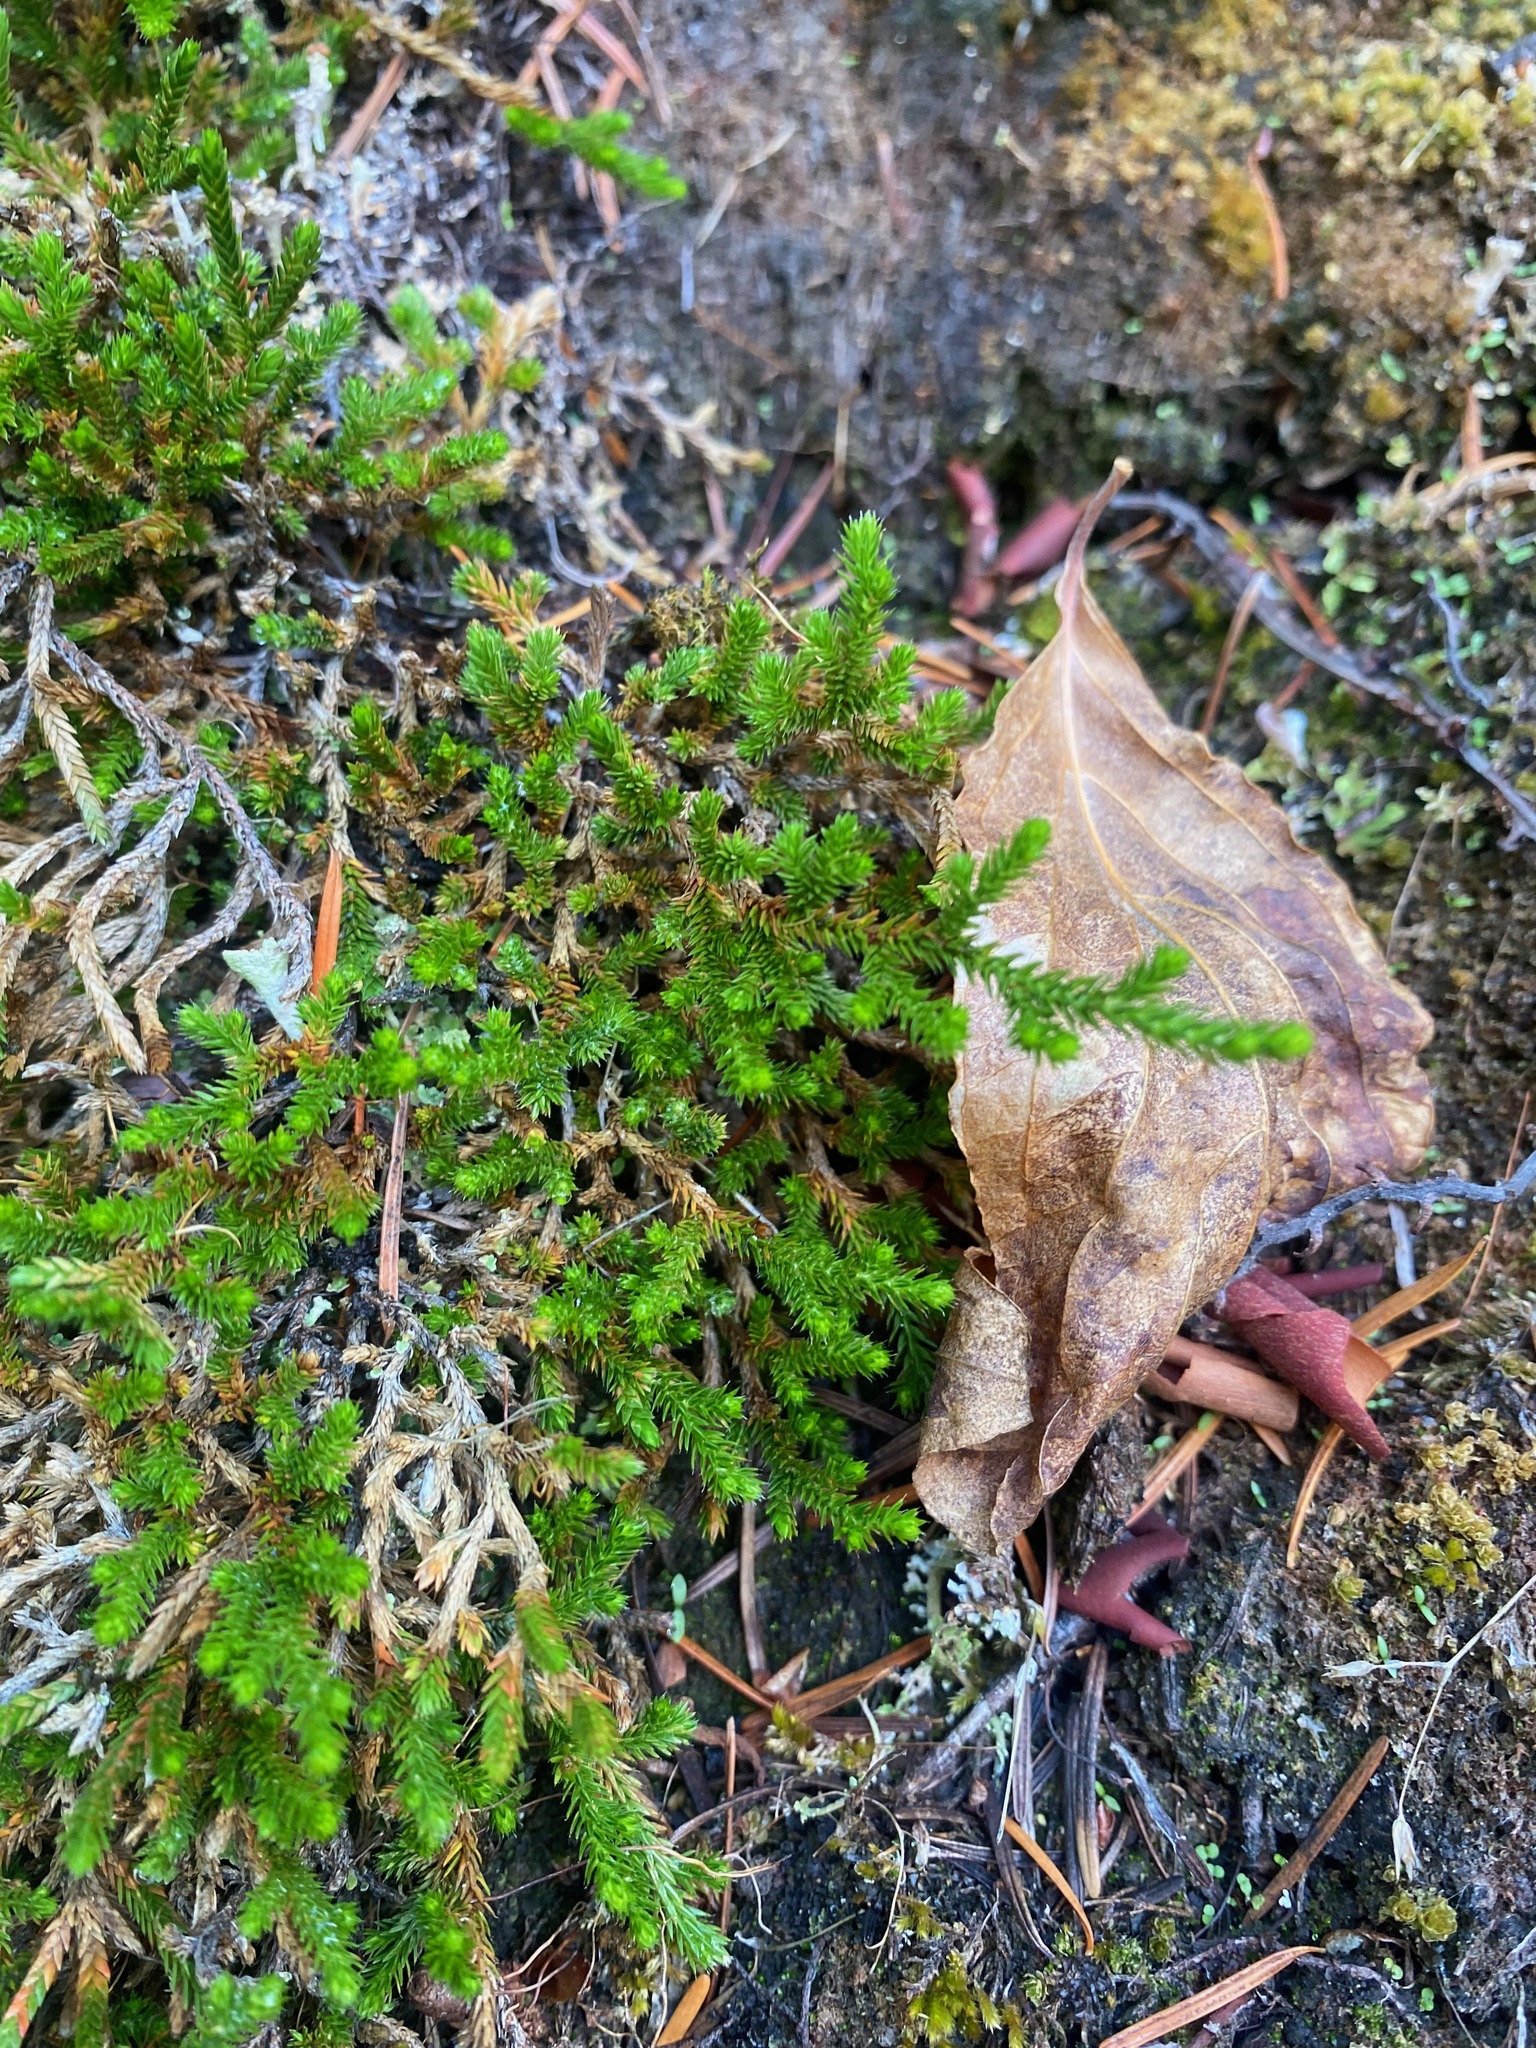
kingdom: Plantae
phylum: Tracheophyta
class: Lycopodiopsida
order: Selaginellales
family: Selaginellaceae
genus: Selaginella
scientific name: Selaginella wallacei
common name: Wallace's selaginella
